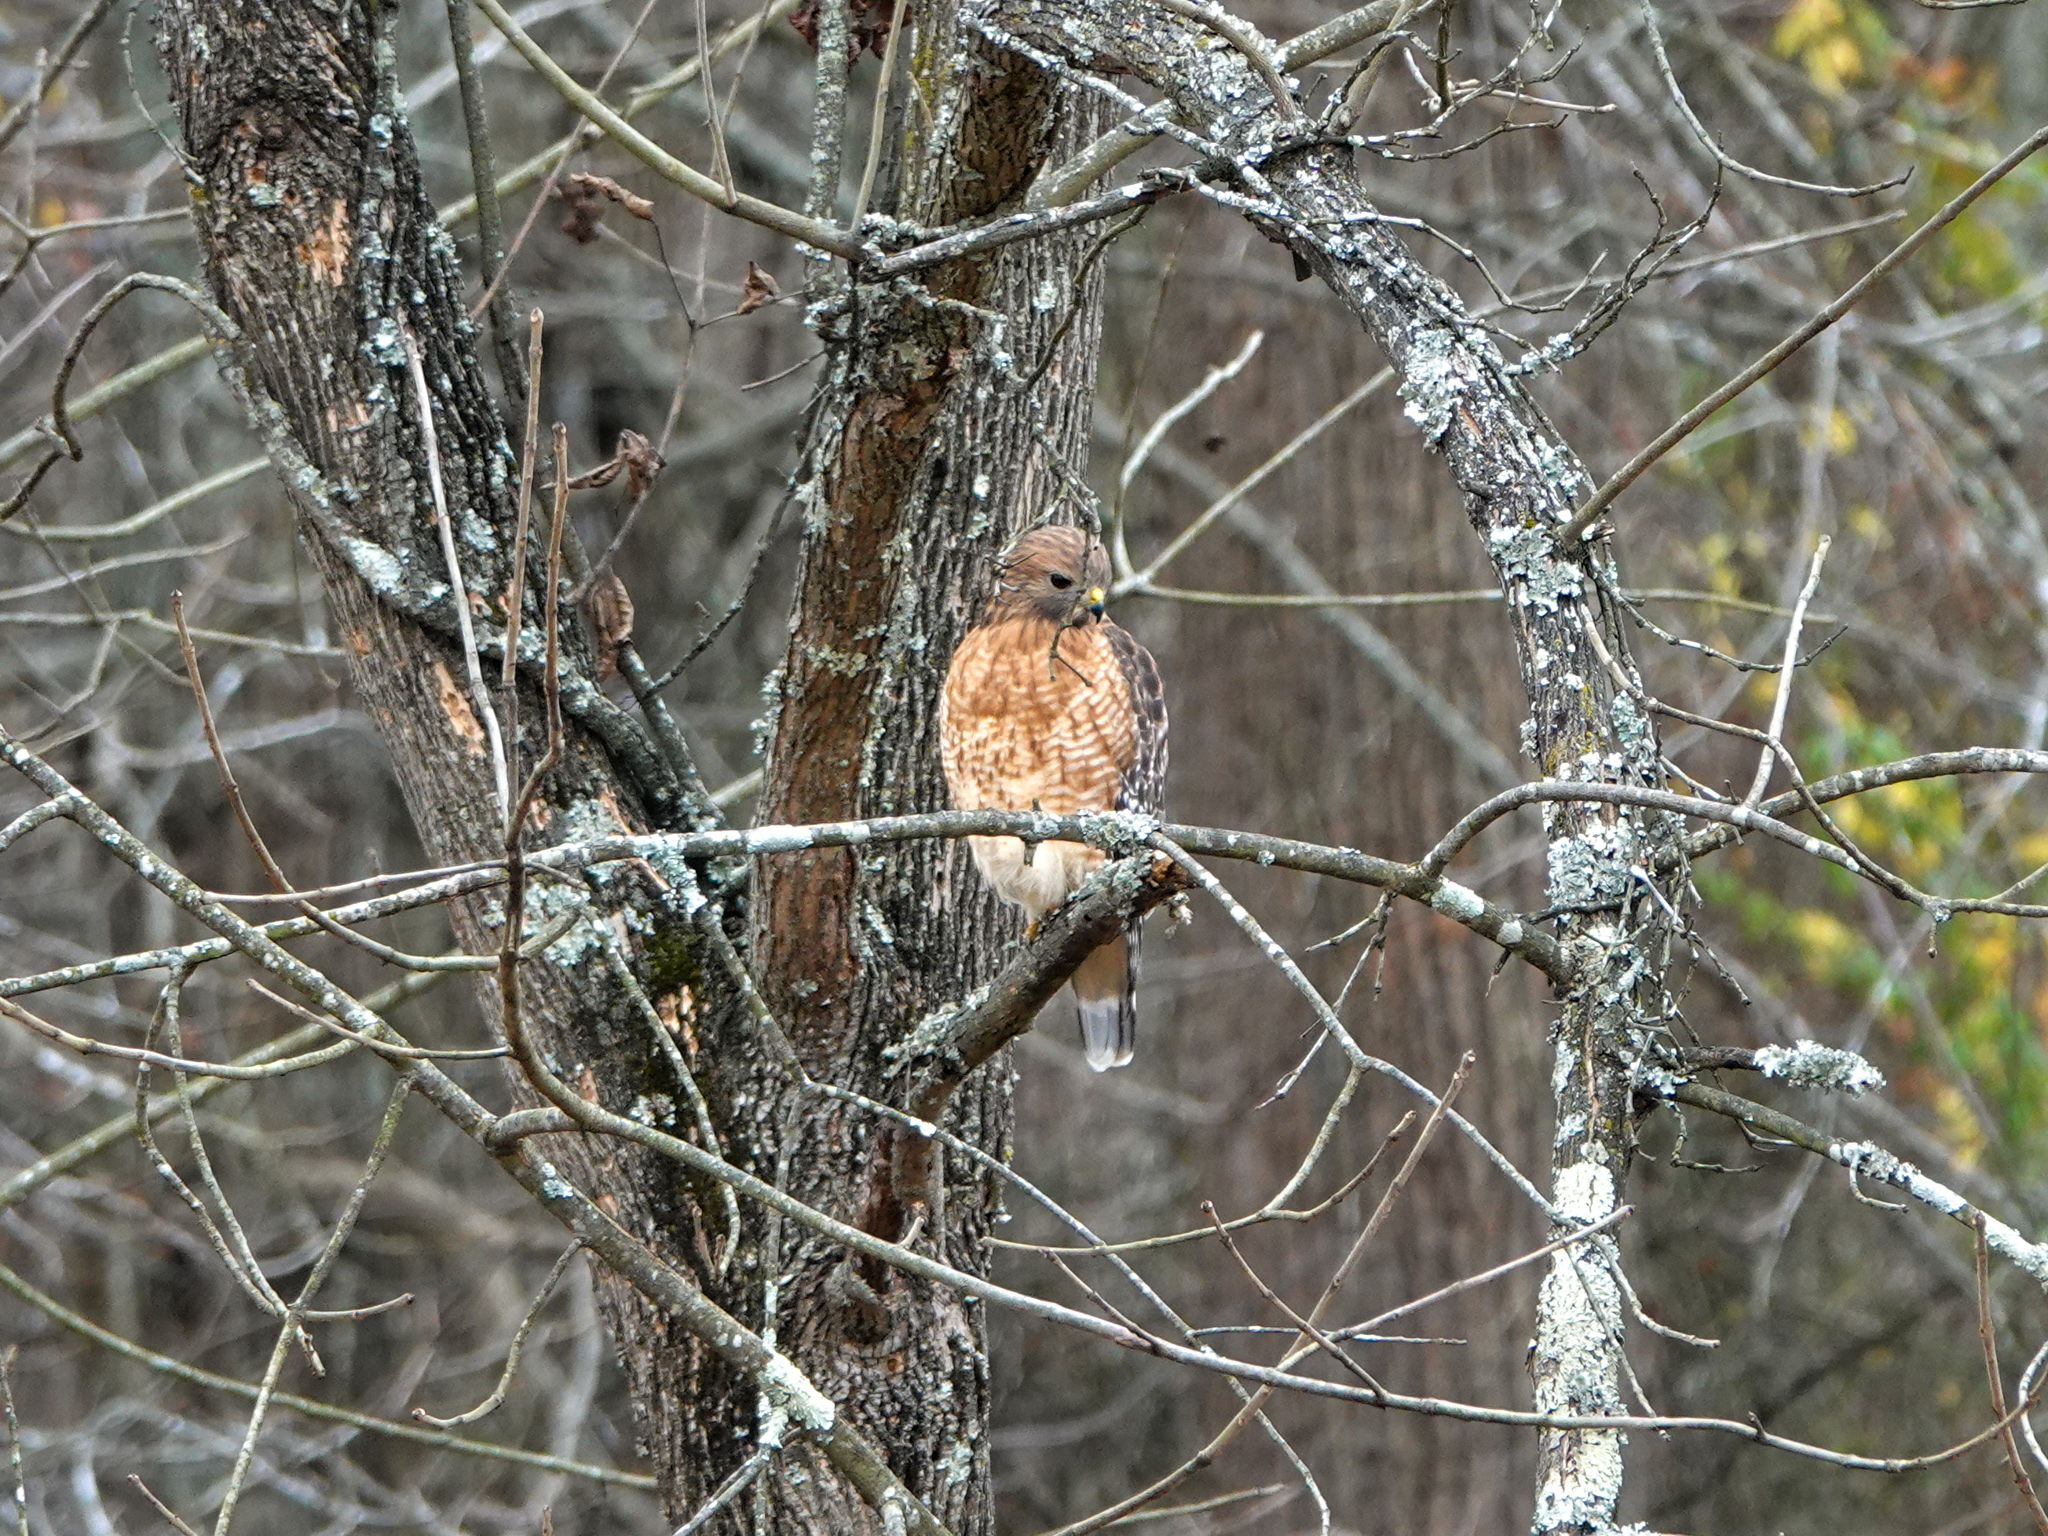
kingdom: Animalia
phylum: Chordata
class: Aves
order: Accipitriformes
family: Accipitridae
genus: Buteo
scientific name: Buteo lineatus
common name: Red-shouldered hawk
